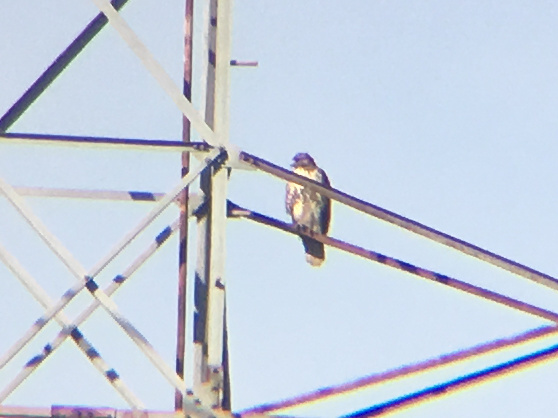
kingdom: Animalia
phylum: Chordata
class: Aves
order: Accipitriformes
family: Accipitridae
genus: Buteo
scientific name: Buteo jamaicensis
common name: Red-tailed hawk
